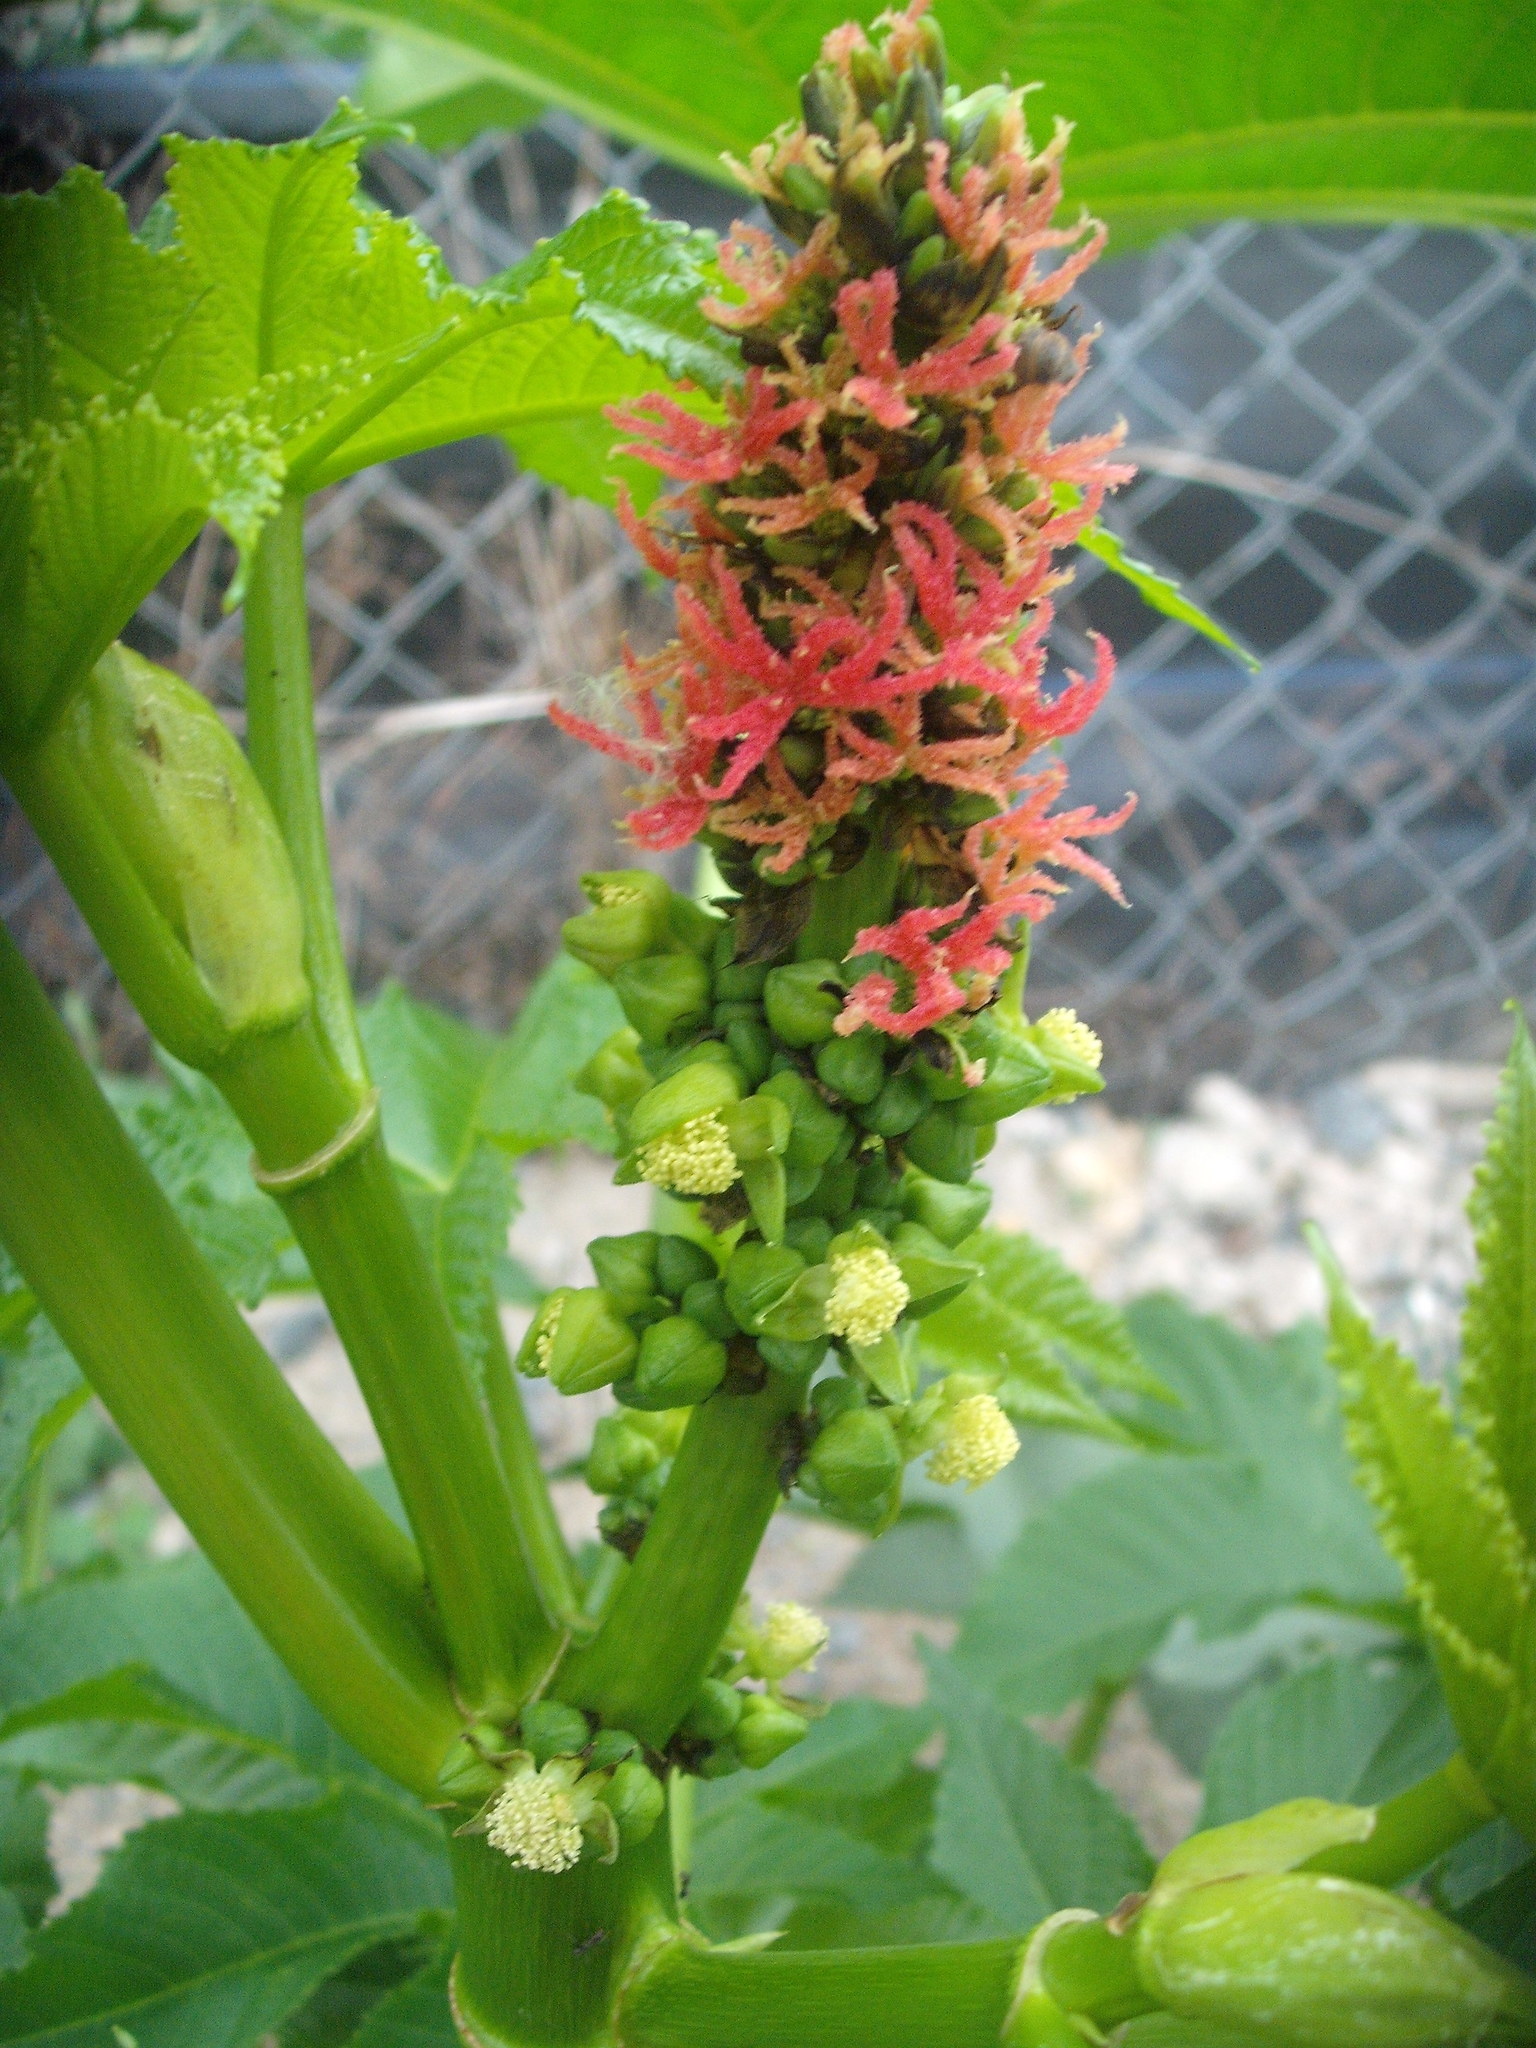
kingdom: Plantae
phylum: Tracheophyta
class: Magnoliopsida
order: Malpighiales
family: Euphorbiaceae
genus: Ricinus
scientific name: Ricinus communis
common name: Castor-oil-plant
